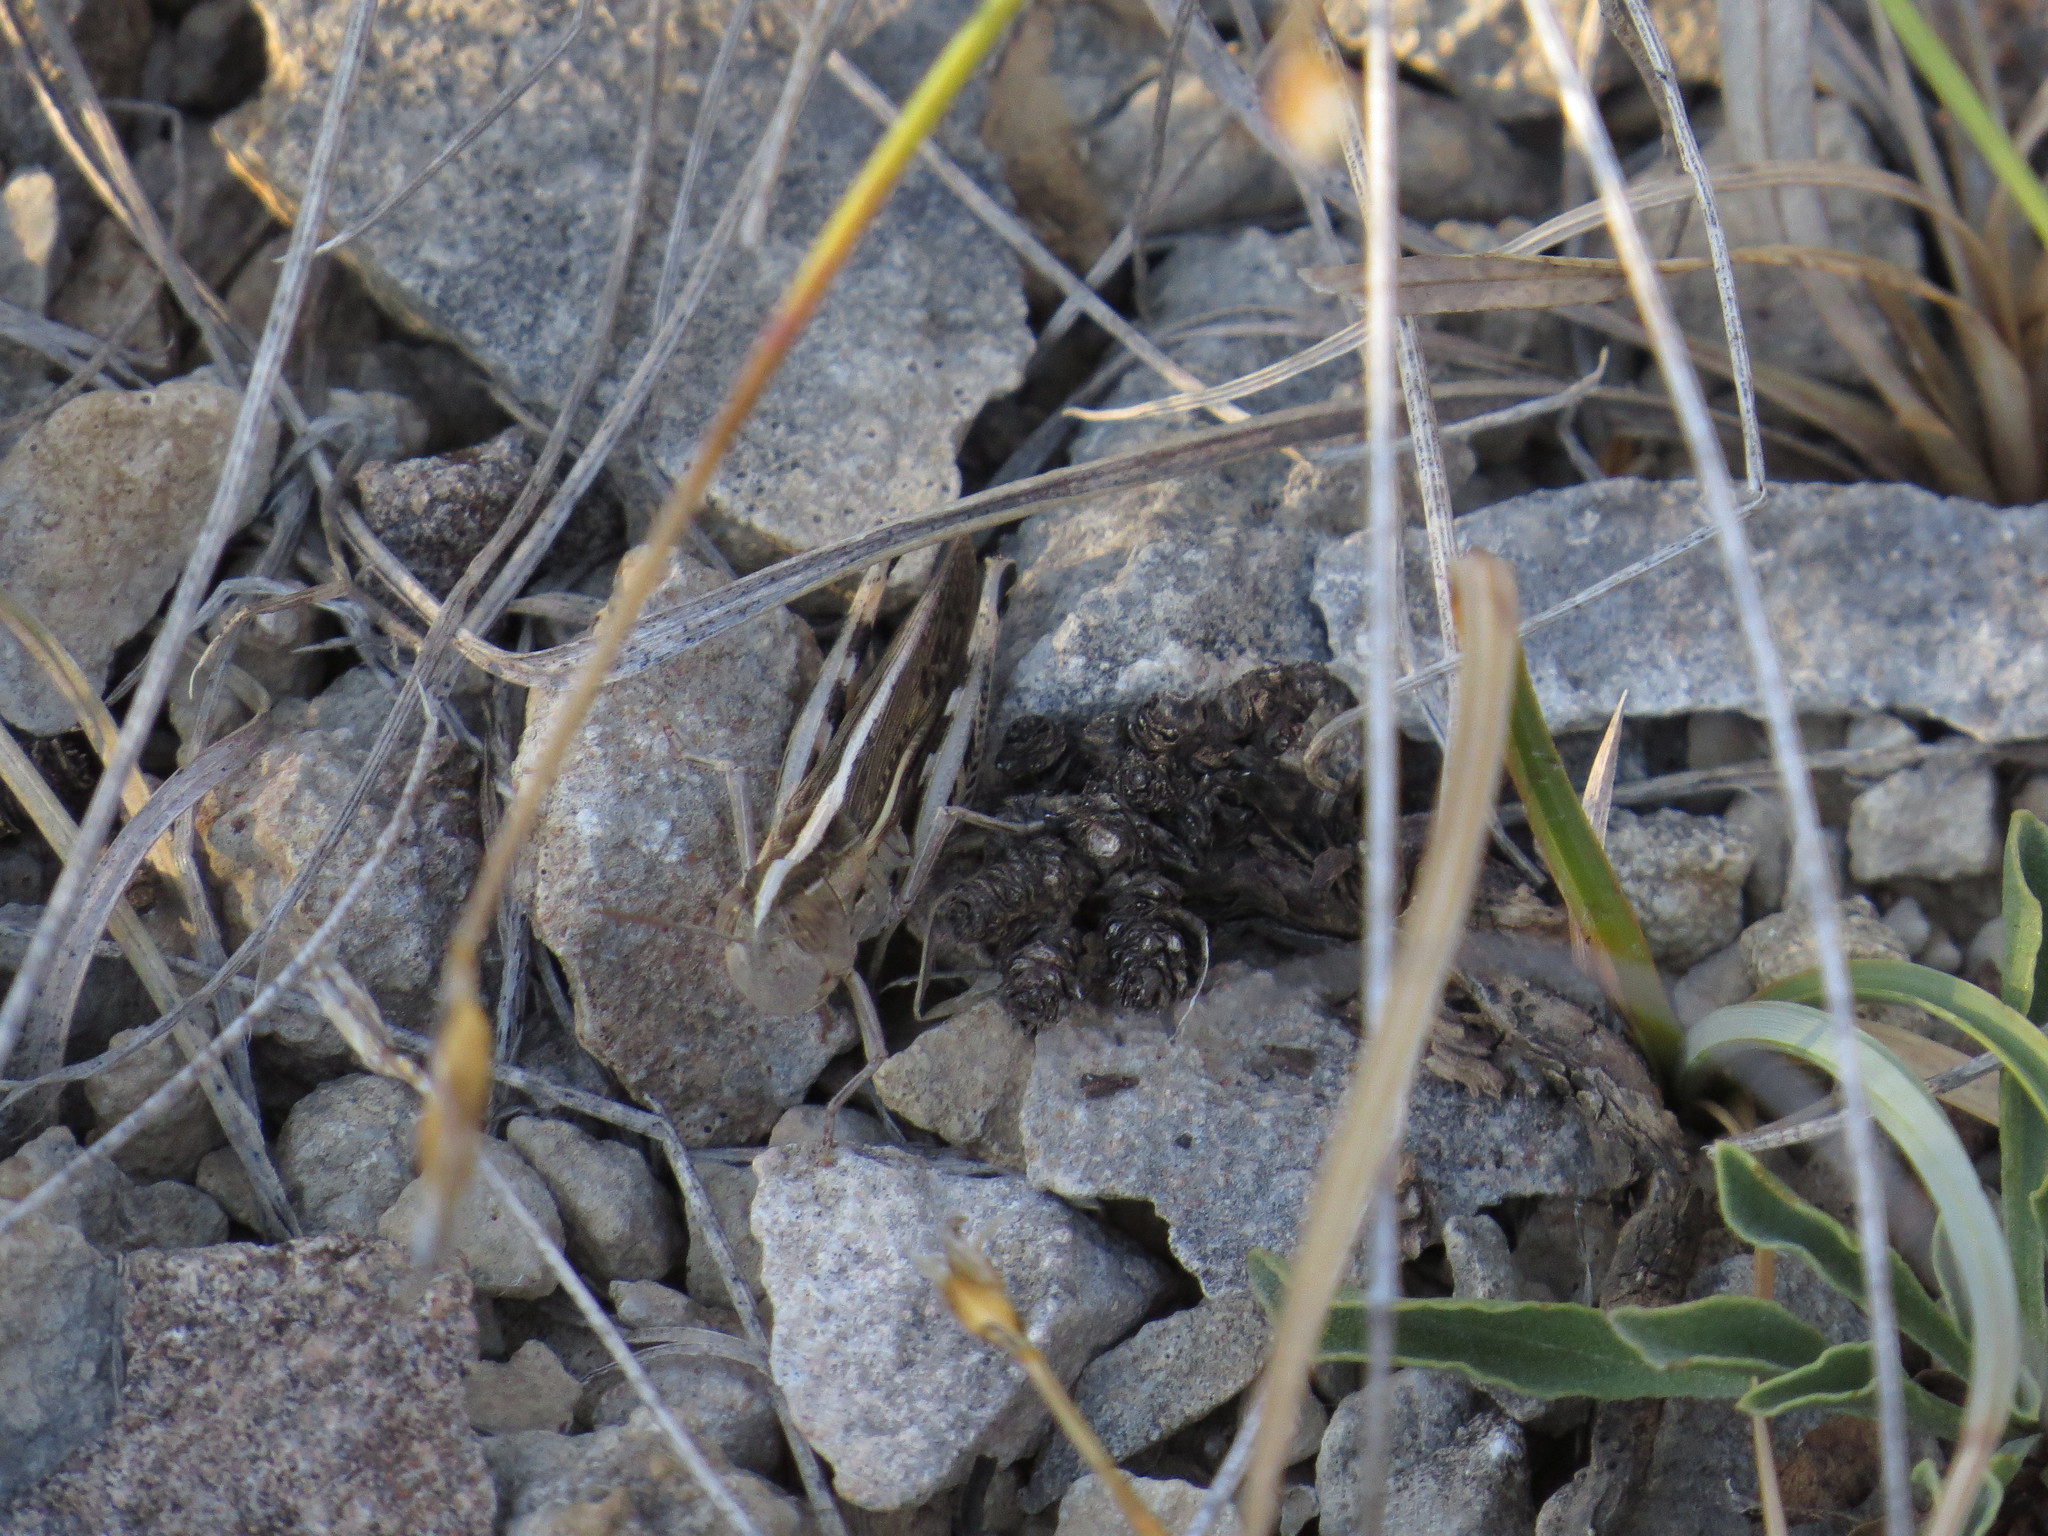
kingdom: Animalia
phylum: Arthropoda
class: Insecta
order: Orthoptera
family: Acrididae
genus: Ramburiella
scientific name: Ramburiella hispanica
